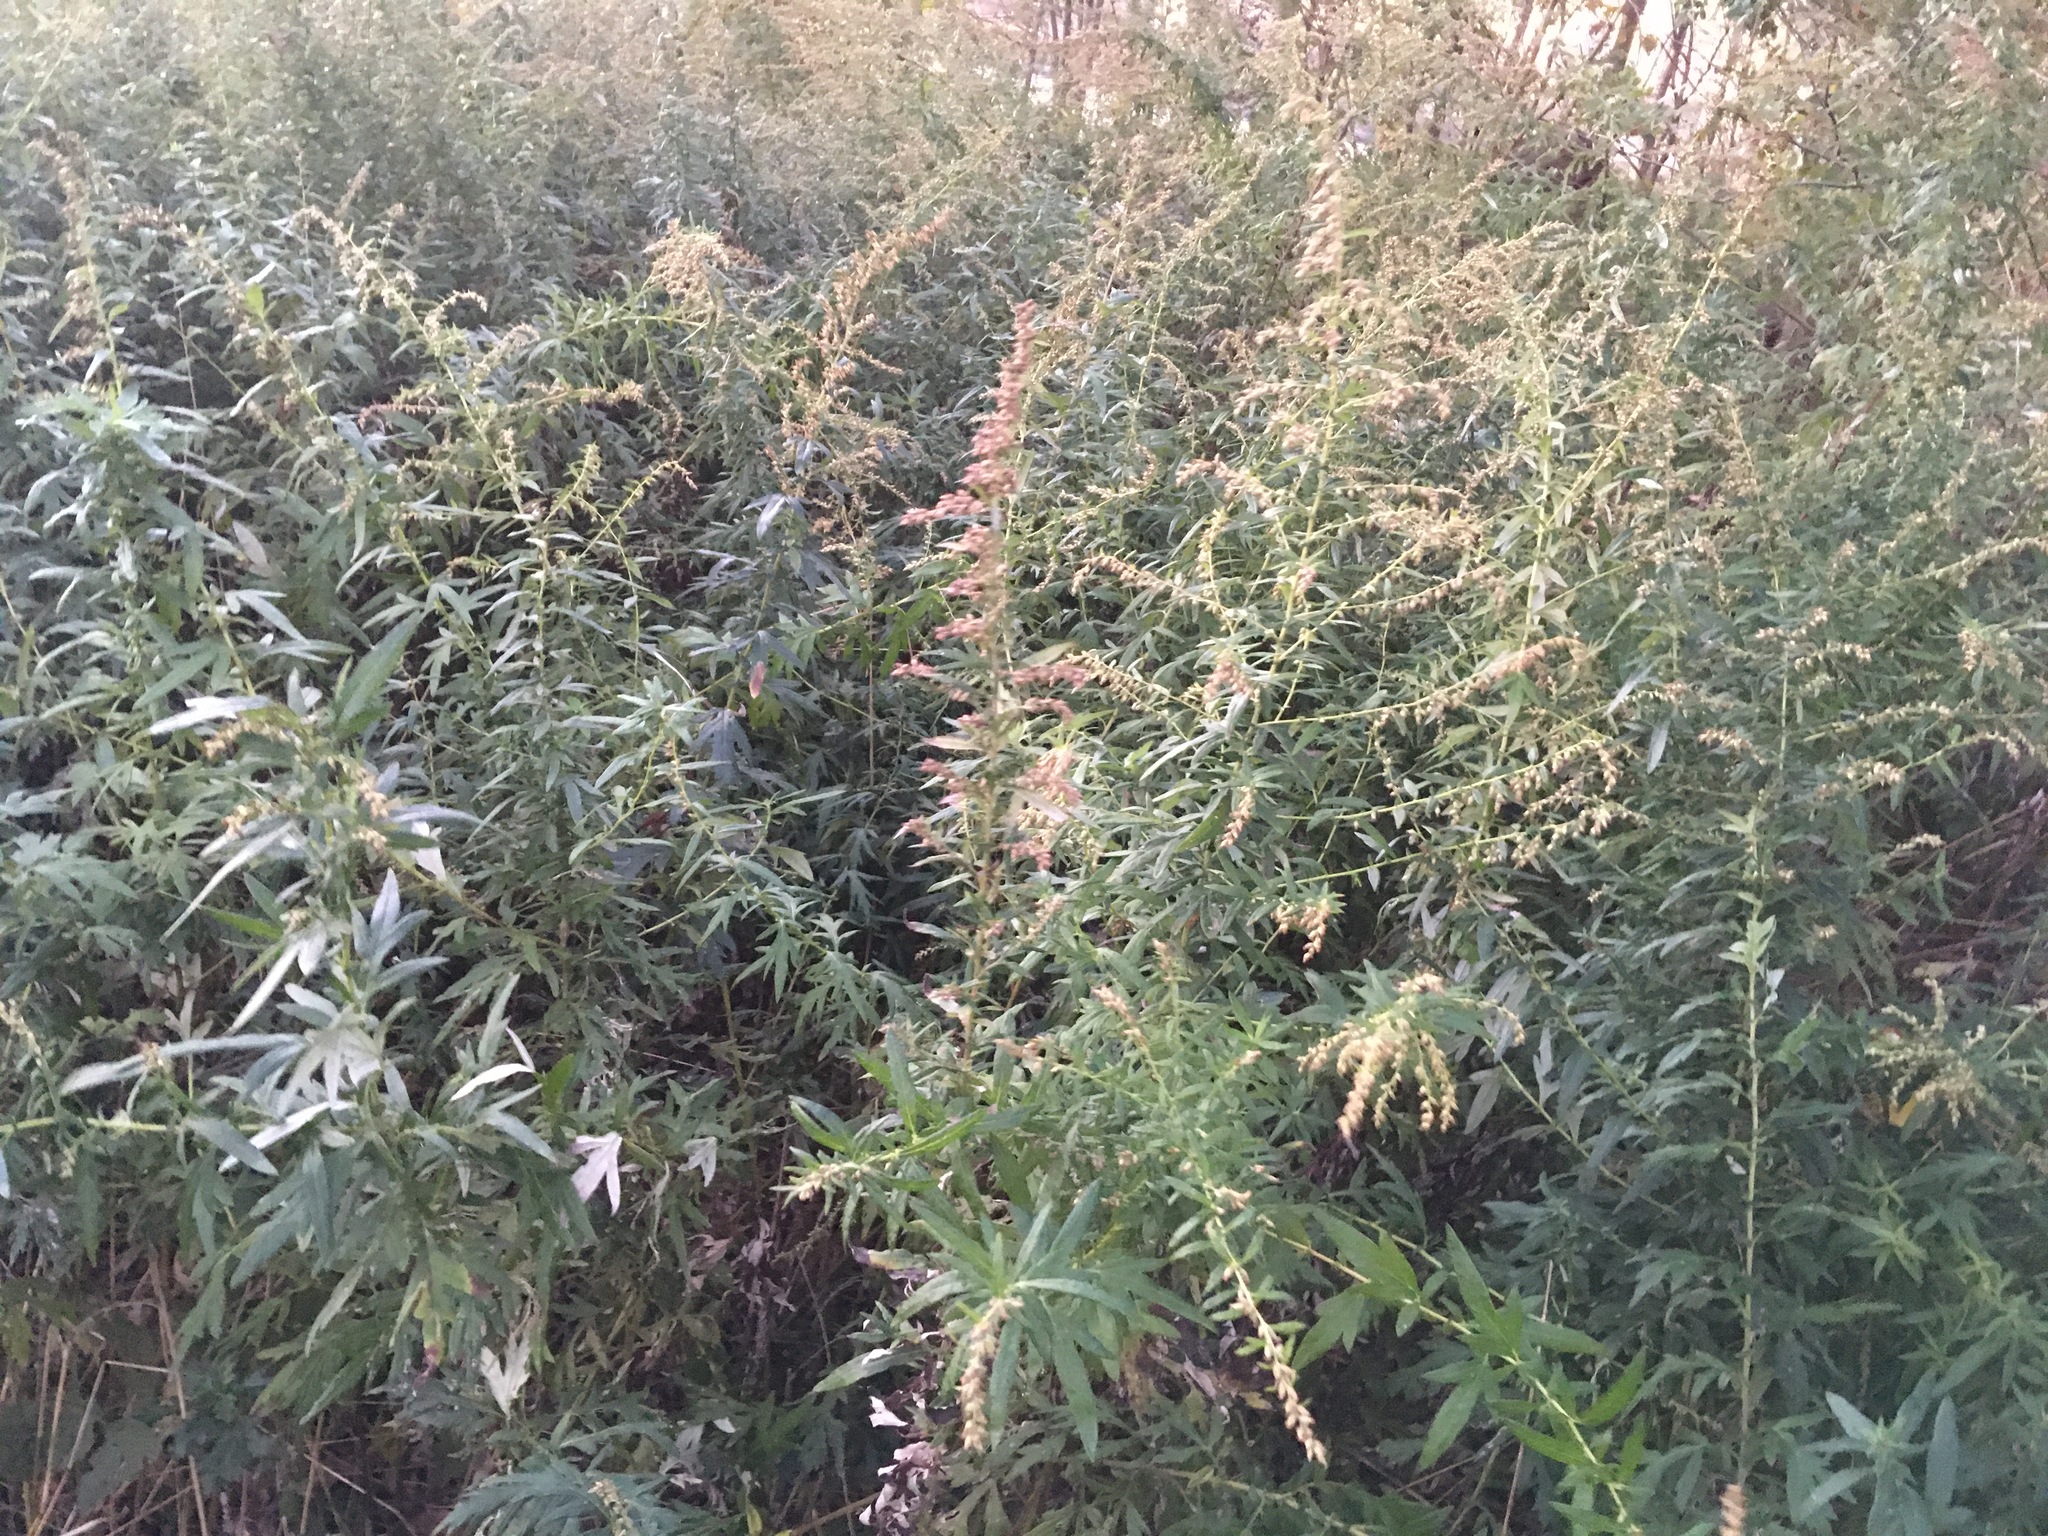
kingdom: Plantae
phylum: Tracheophyta
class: Magnoliopsida
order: Asterales
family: Asteraceae
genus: Artemisia
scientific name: Artemisia vulgaris
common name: Mugwort
